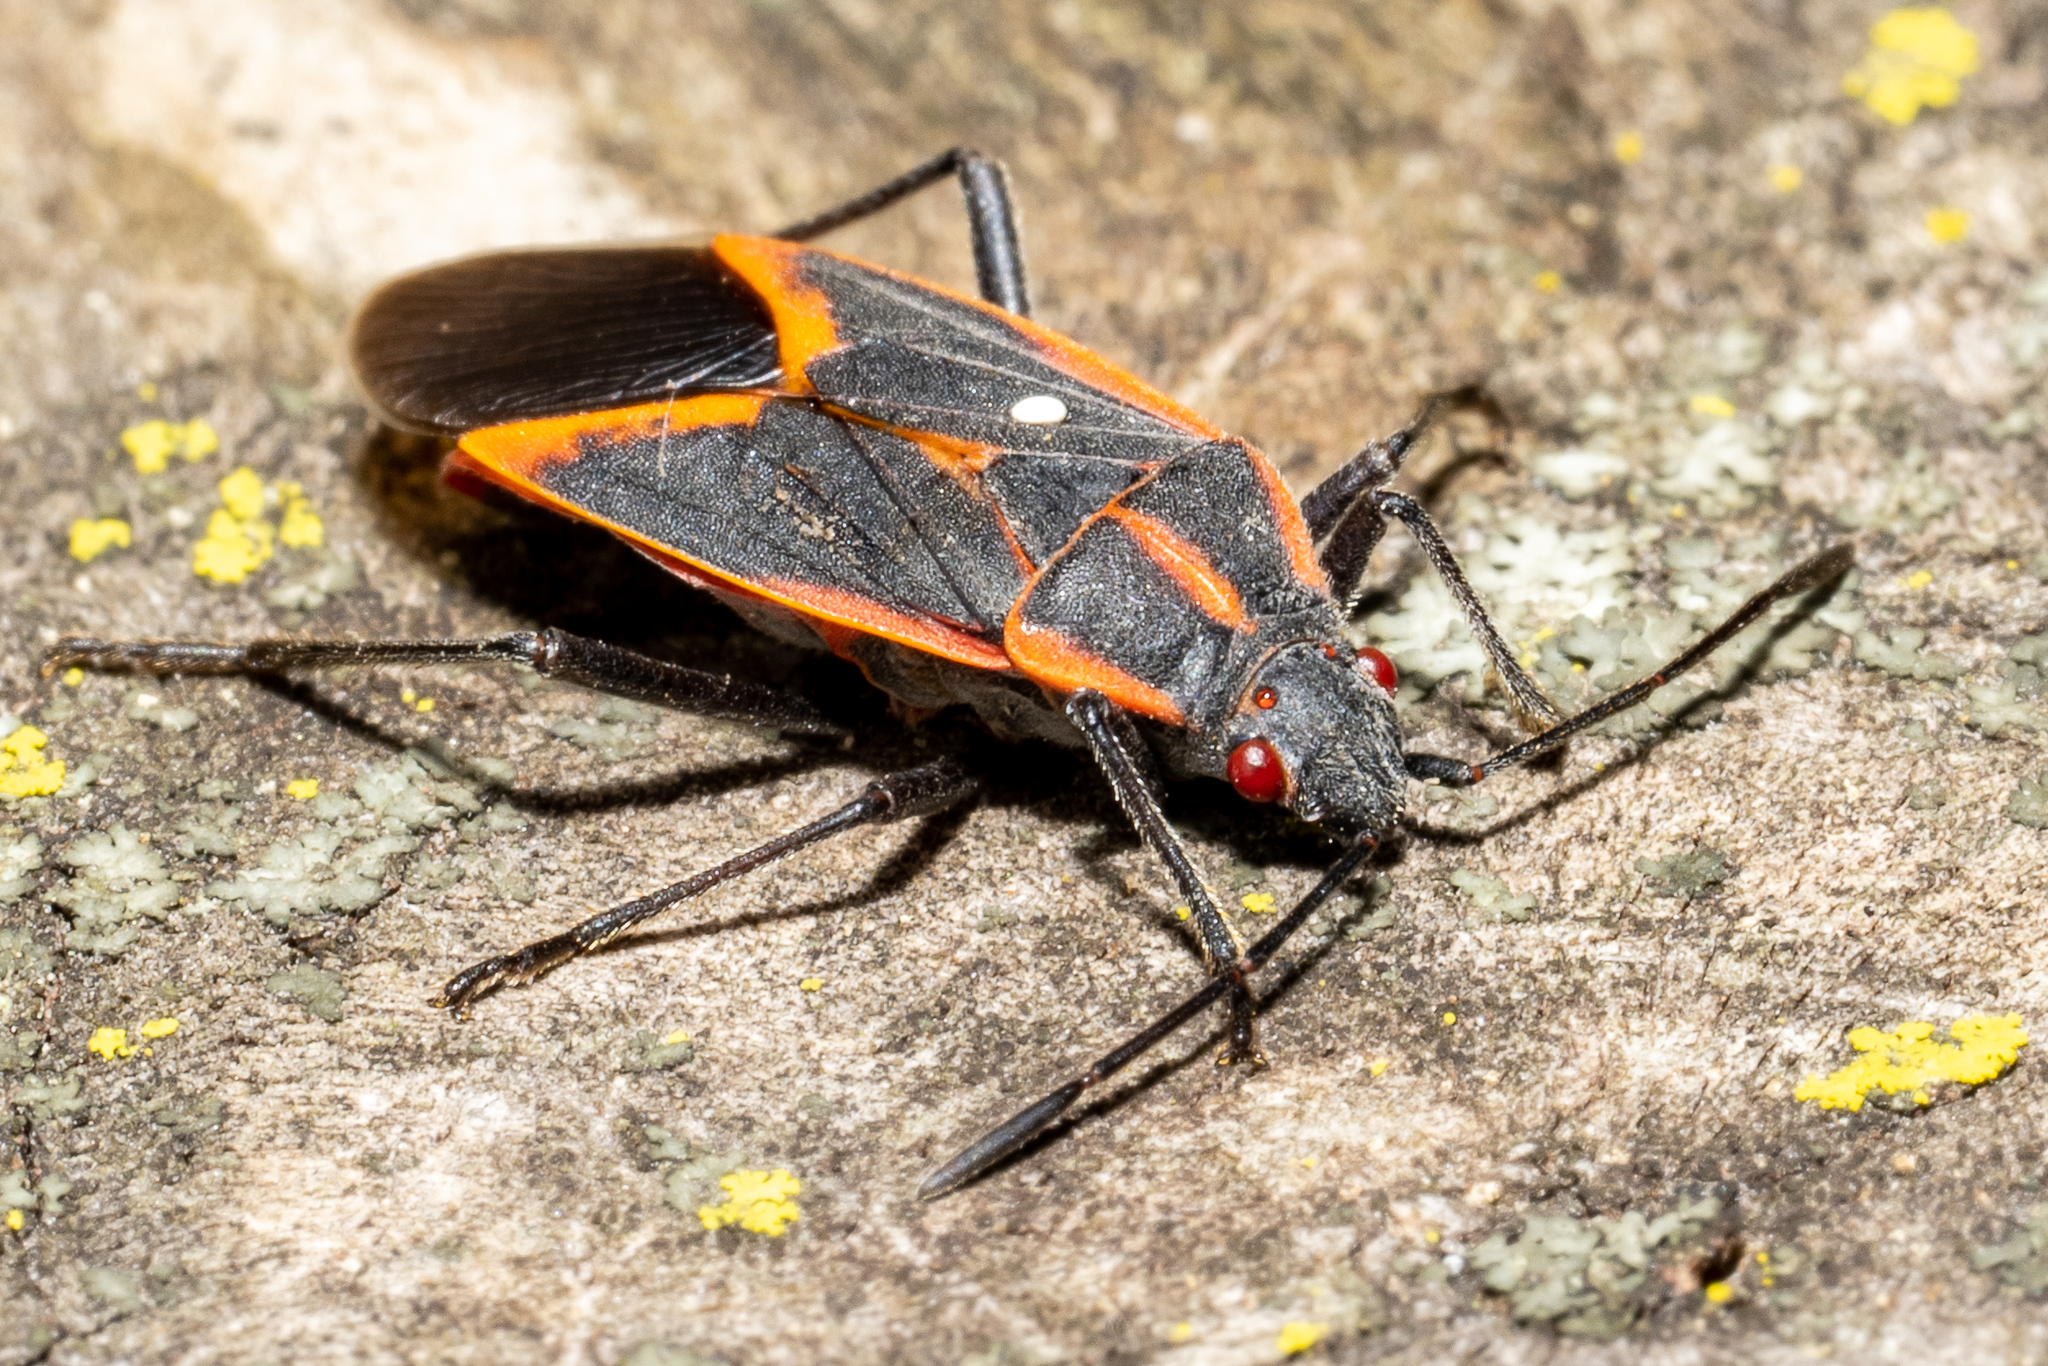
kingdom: Animalia
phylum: Arthropoda
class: Insecta
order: Hemiptera
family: Rhopalidae
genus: Boisea
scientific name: Boisea trivittata
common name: Boxelder bug
